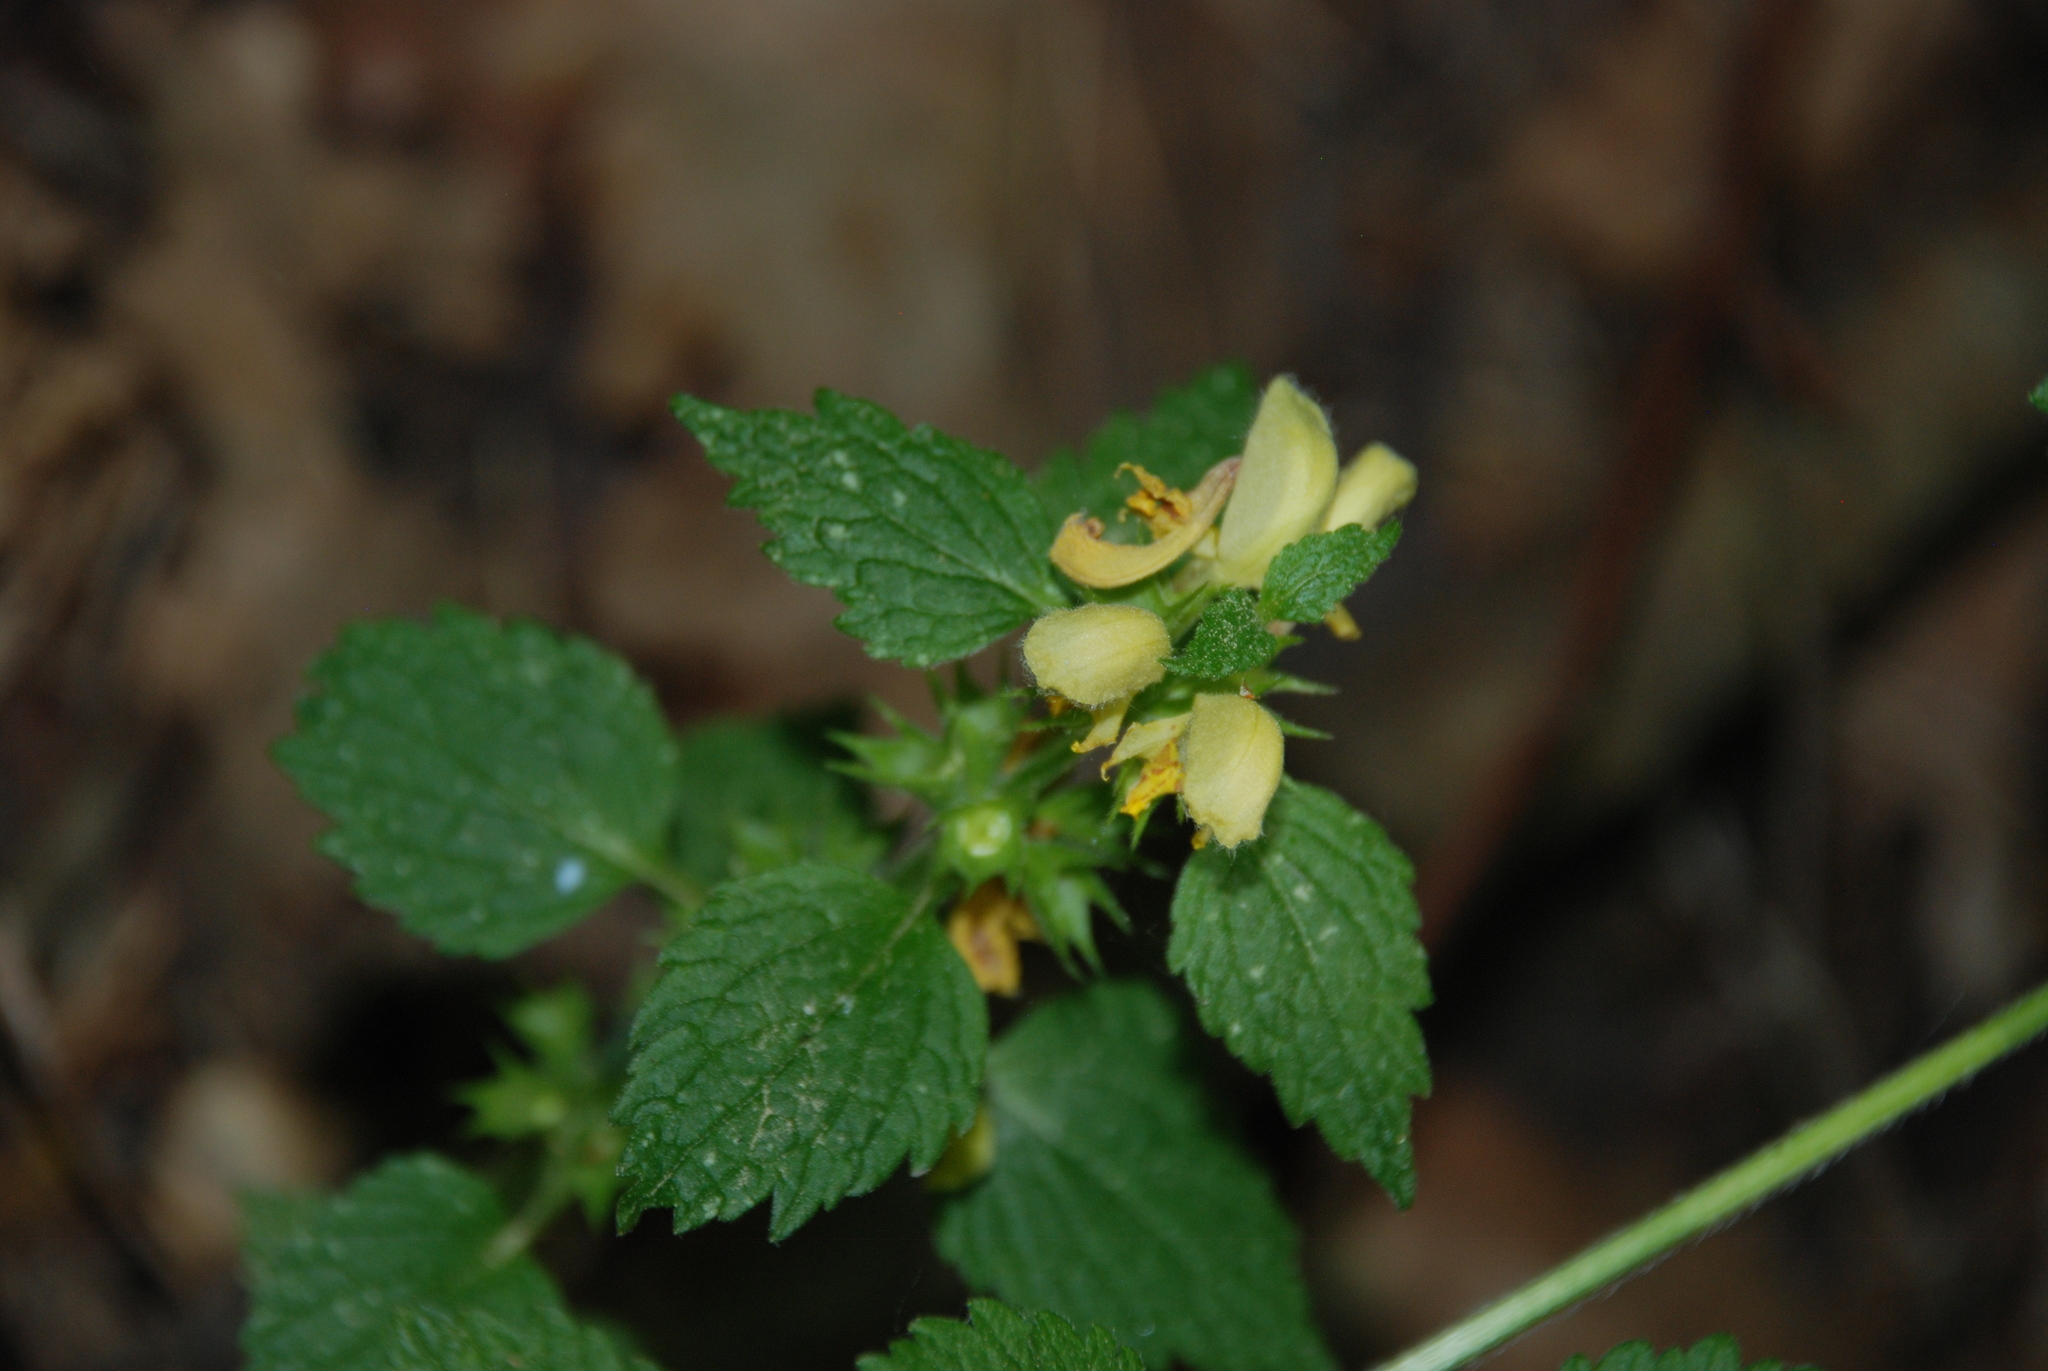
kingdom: Plantae
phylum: Tracheophyta
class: Magnoliopsida
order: Lamiales
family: Lamiaceae
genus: Lamium
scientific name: Lamium galeobdolon
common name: Yellow archangel
